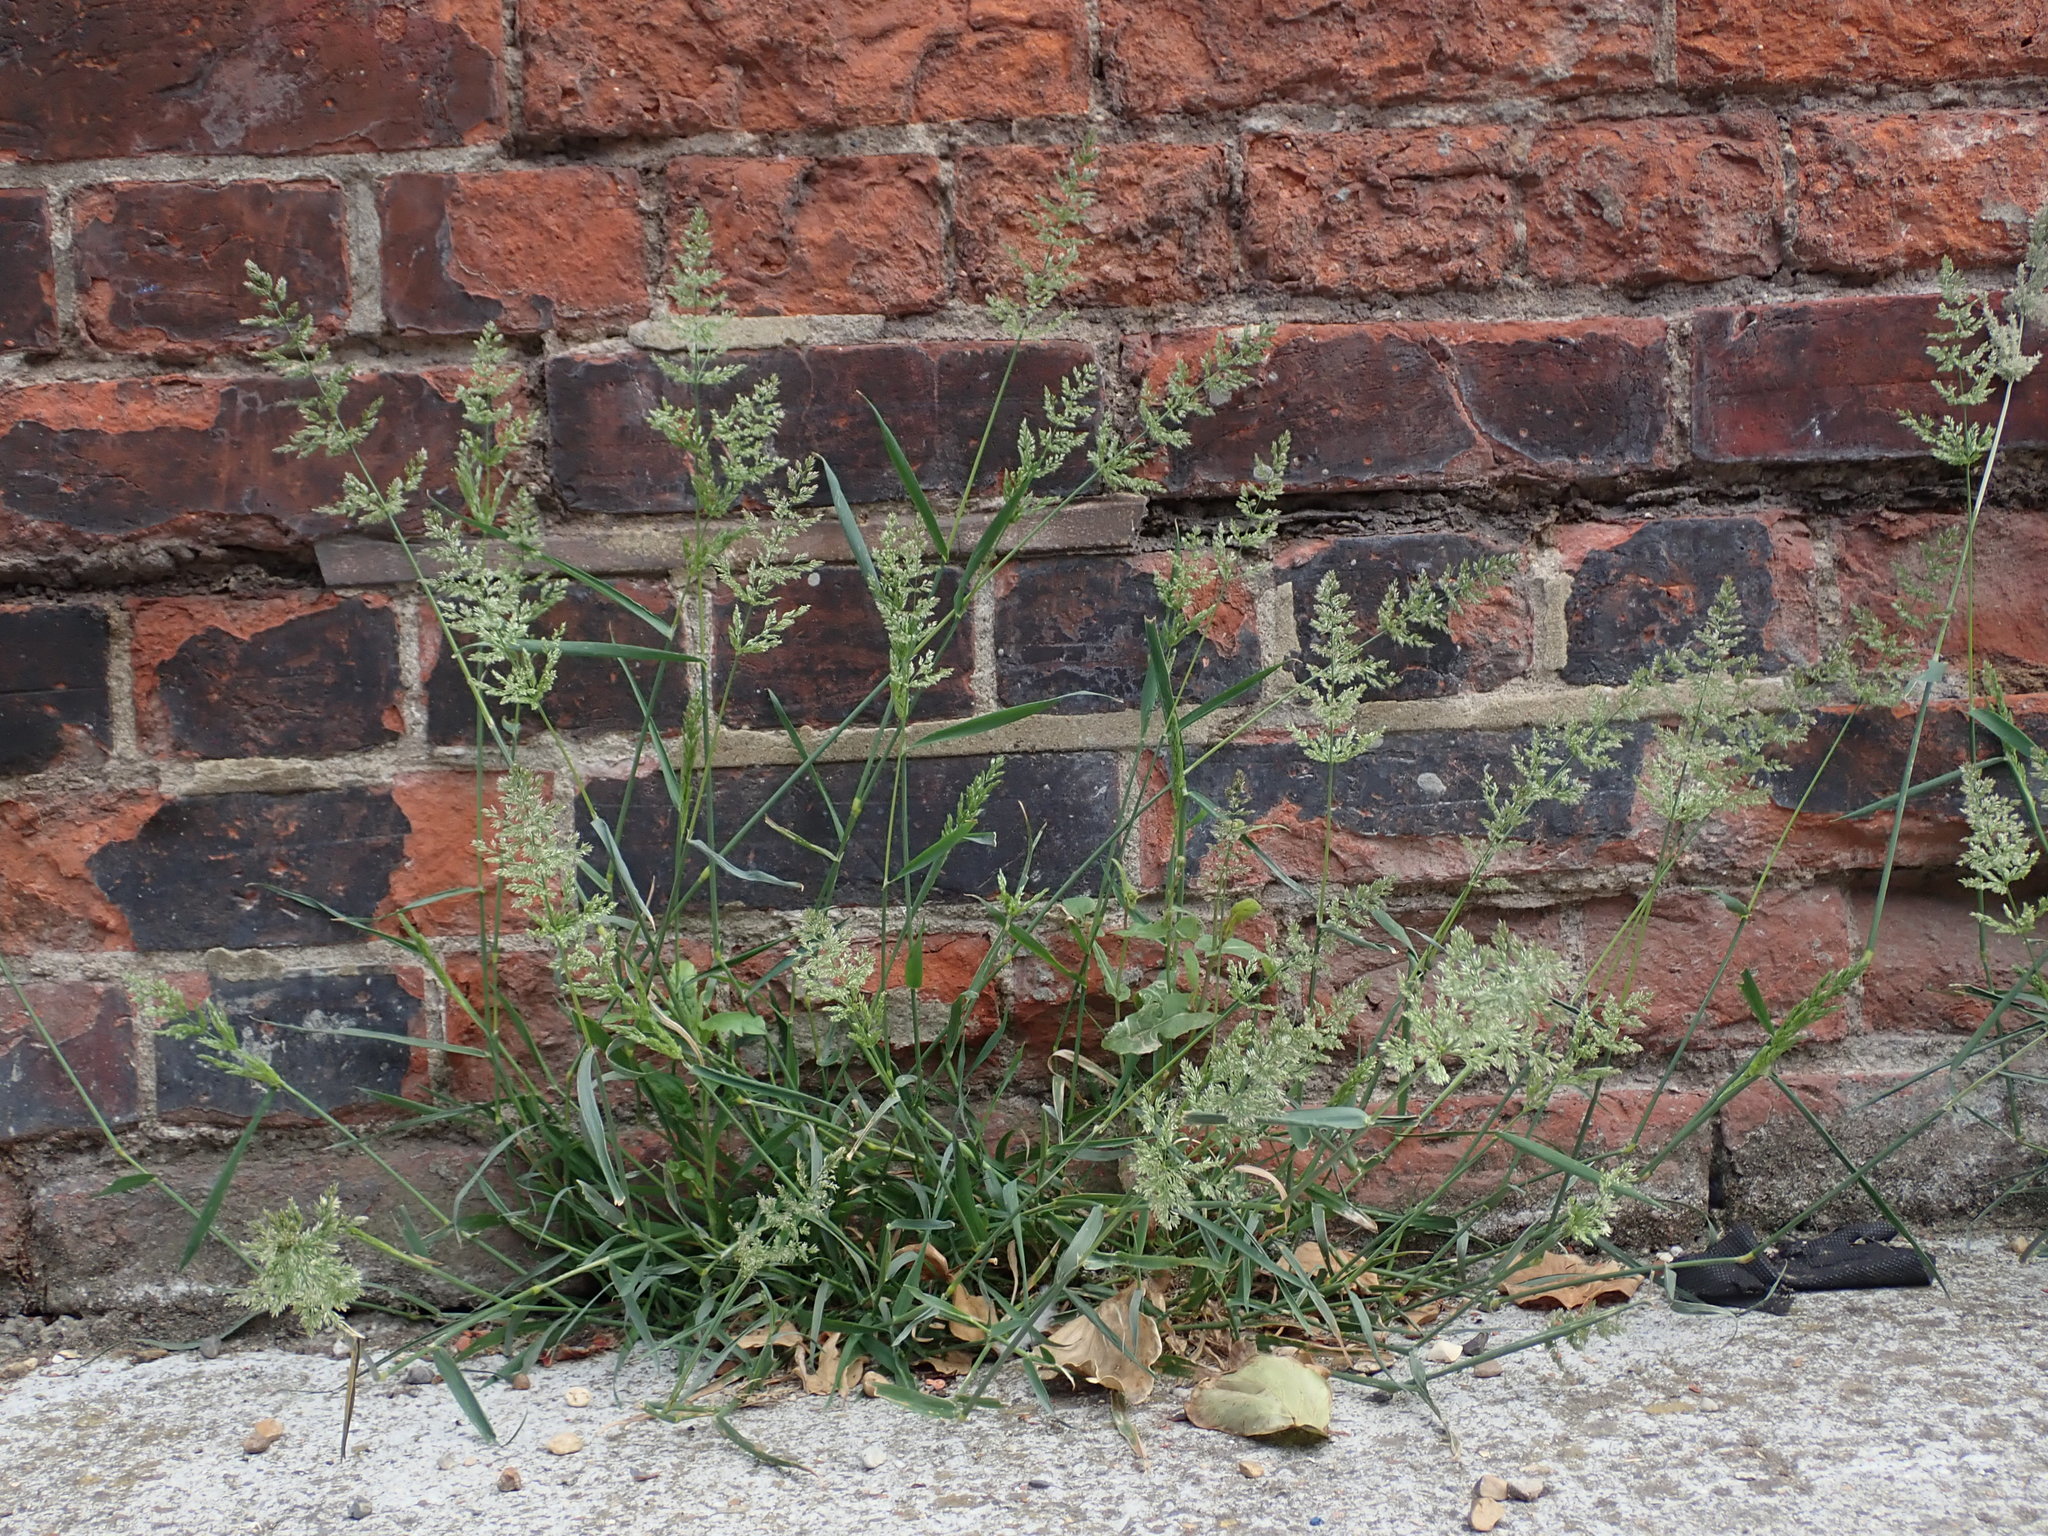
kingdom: Plantae
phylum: Tracheophyta
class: Liliopsida
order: Poales
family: Poaceae
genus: Polypogon
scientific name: Polypogon viridis
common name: Water bent
